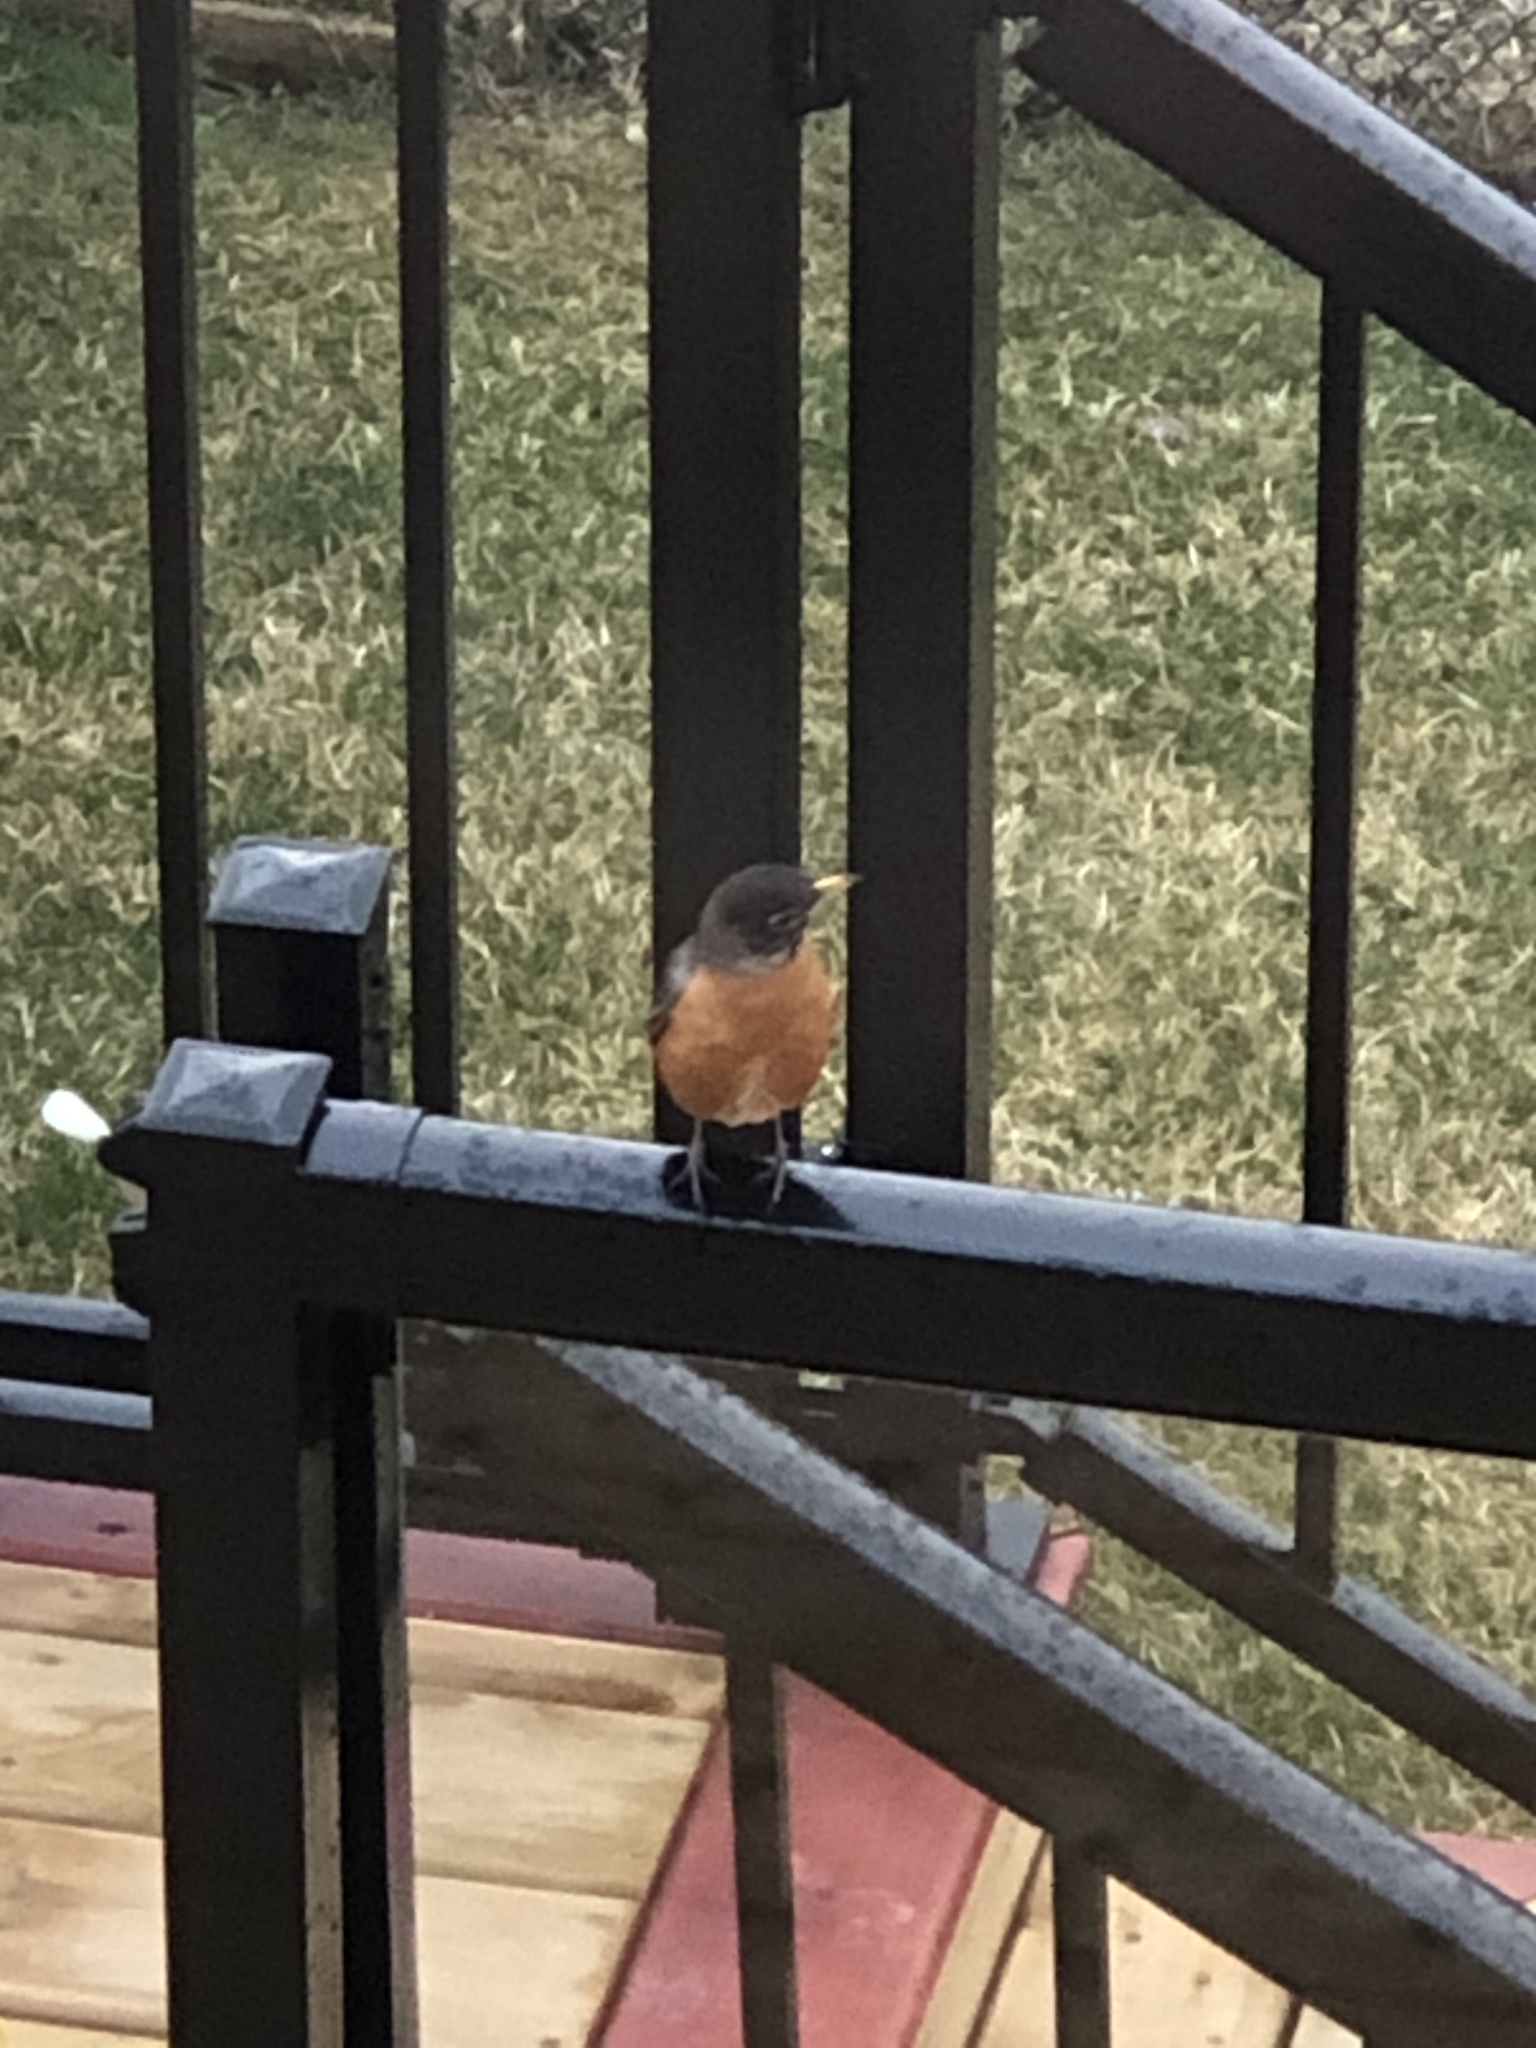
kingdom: Animalia
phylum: Chordata
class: Aves
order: Passeriformes
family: Turdidae
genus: Turdus
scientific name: Turdus migratorius
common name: American robin
